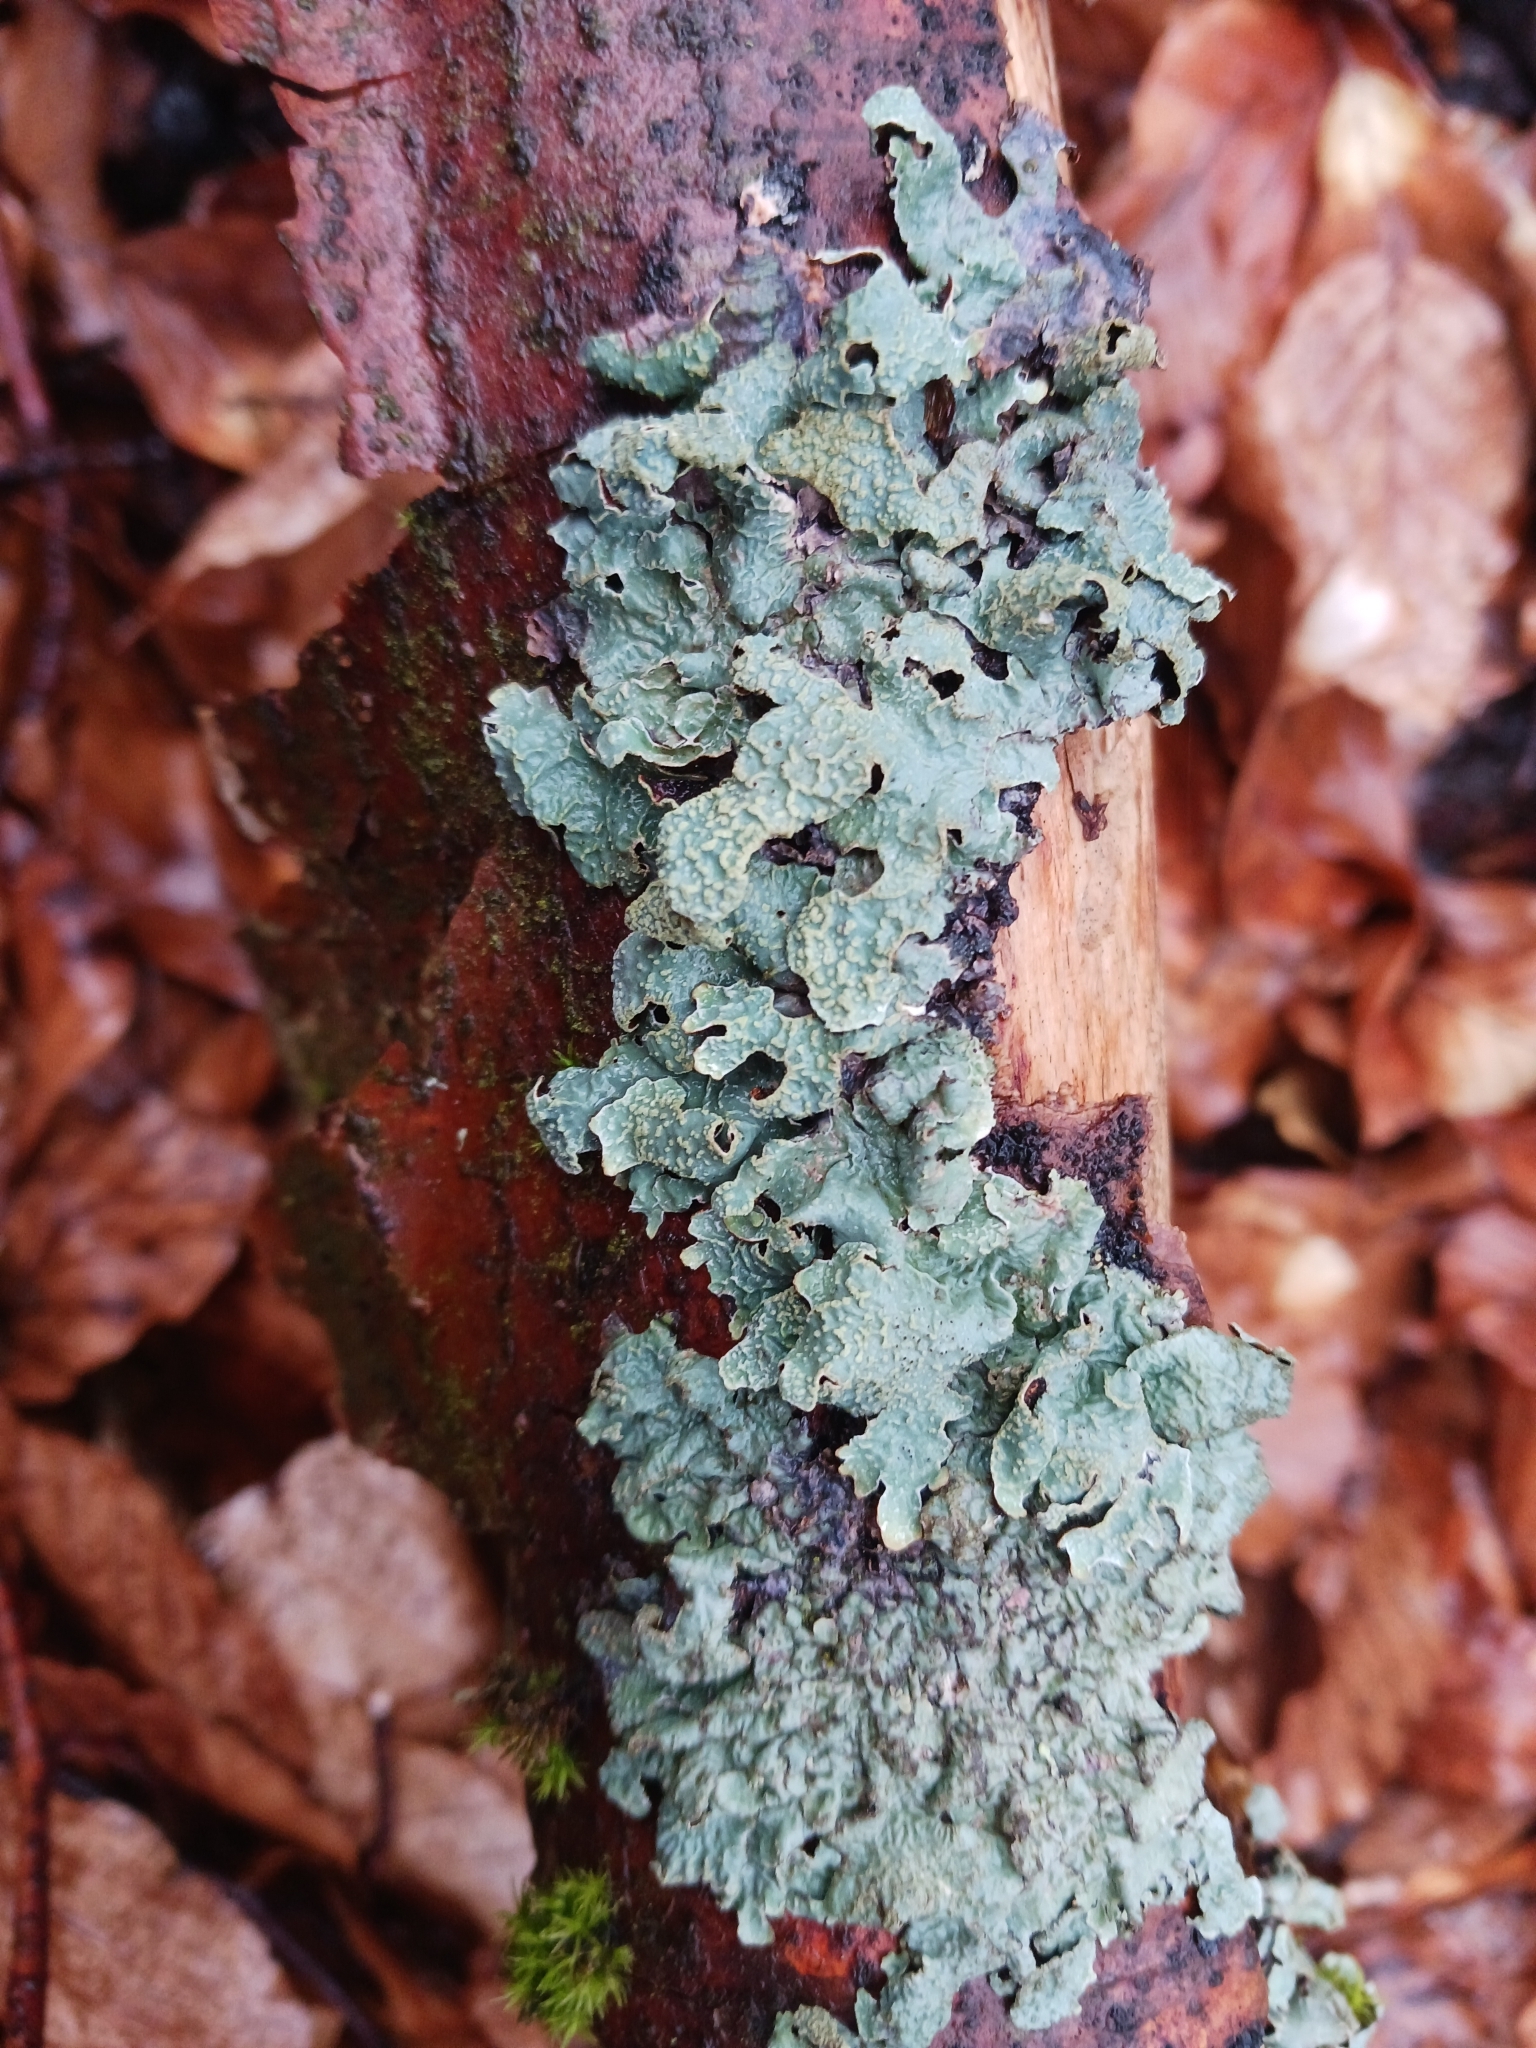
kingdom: Fungi
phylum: Ascomycota
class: Lecanoromycetes
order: Lecanorales
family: Parmeliaceae
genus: Parmelia
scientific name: Parmelia sulcata
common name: Netted shield lichen
